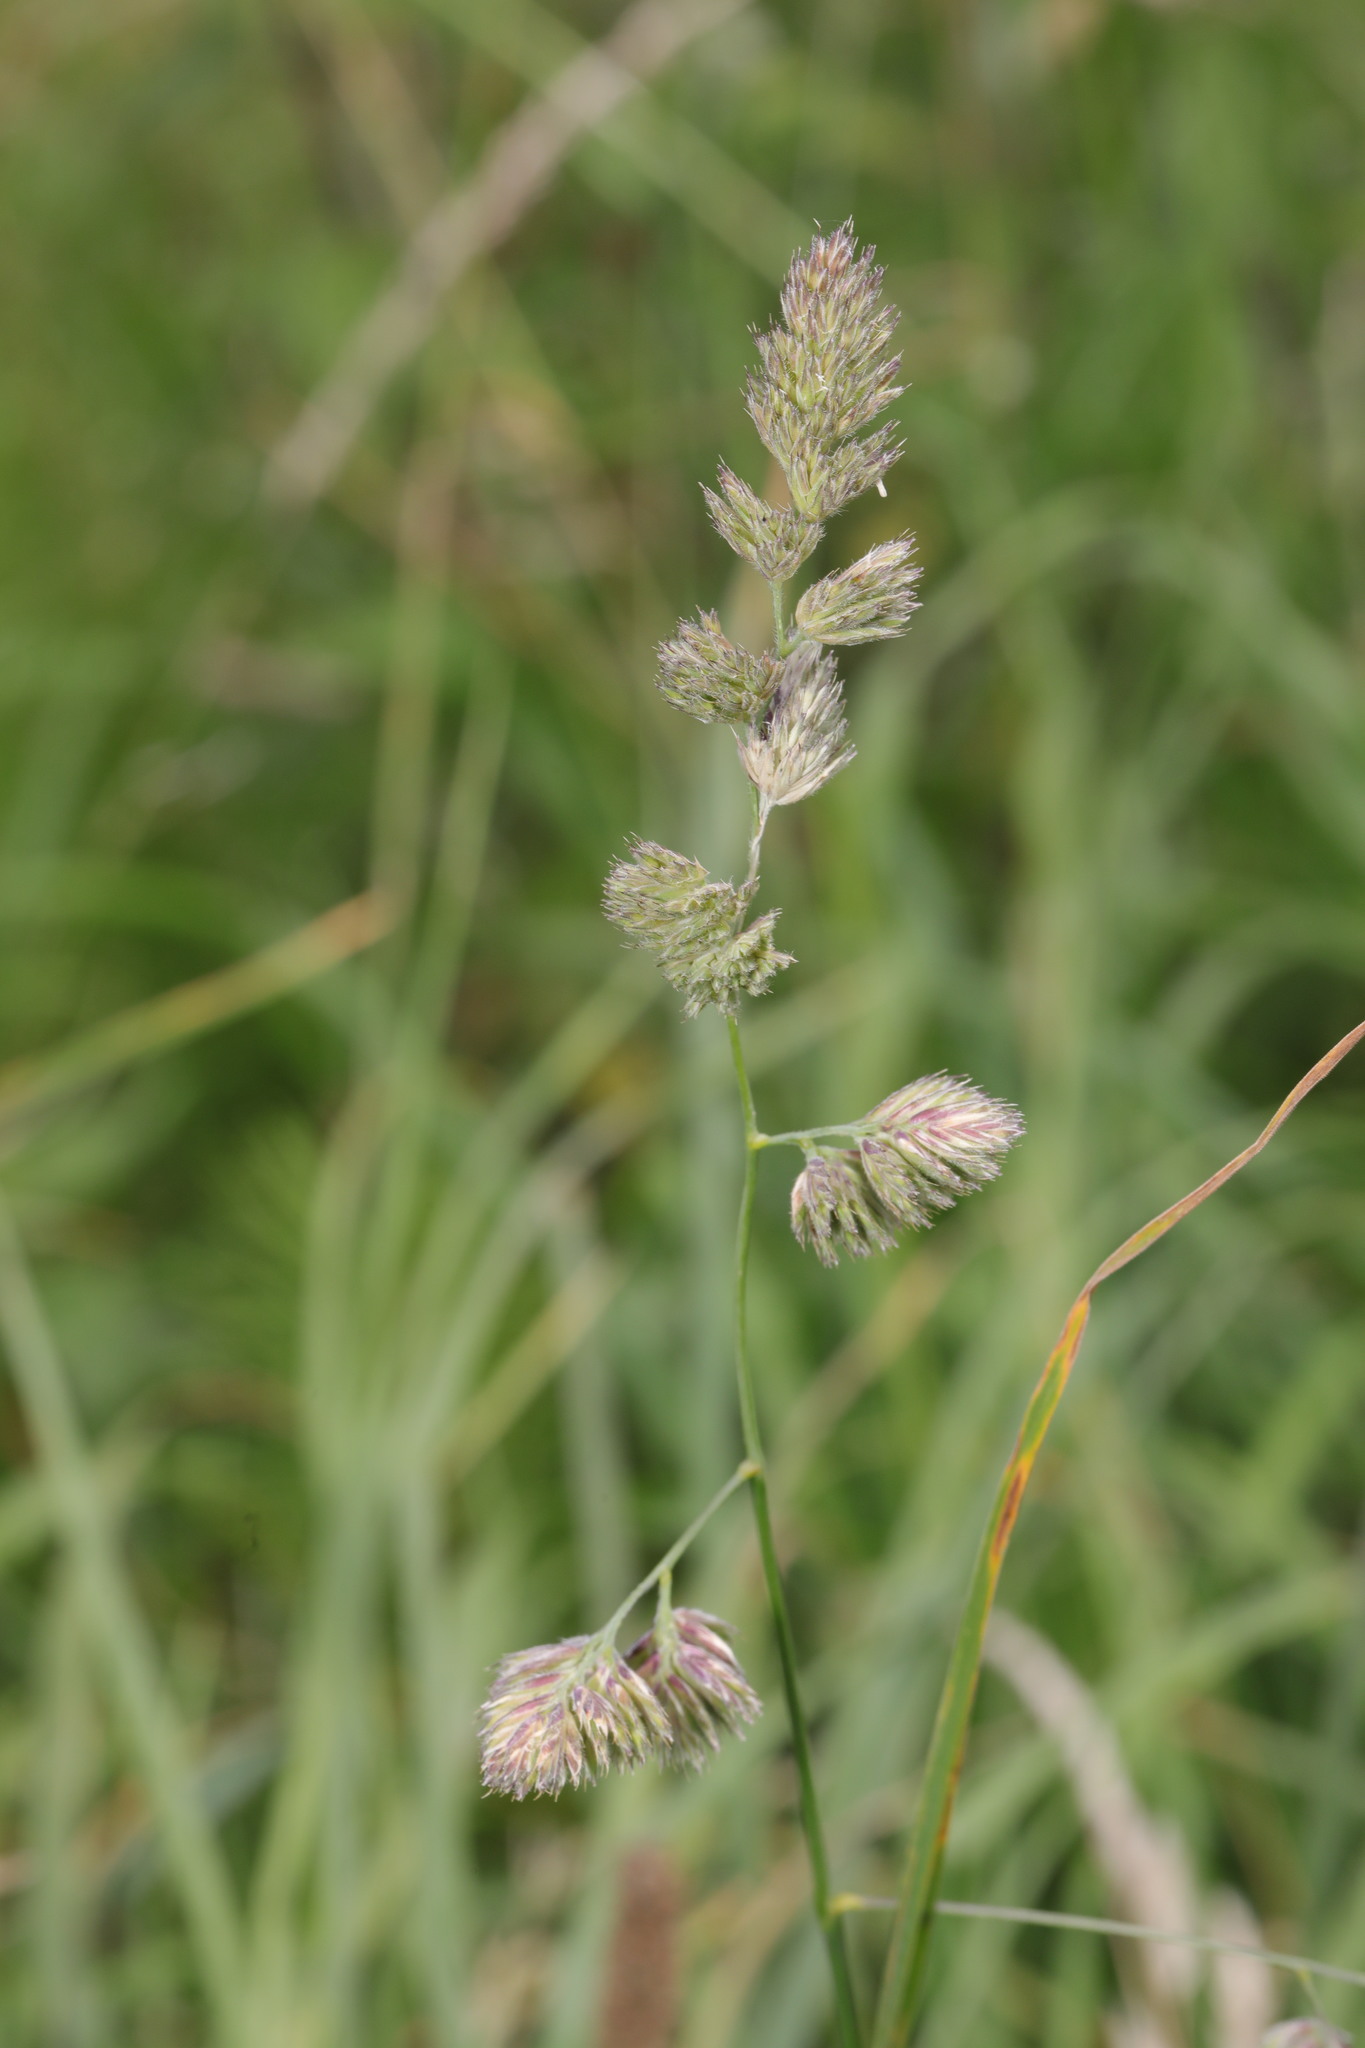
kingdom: Plantae
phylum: Tracheophyta
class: Liliopsida
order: Poales
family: Poaceae
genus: Dactylis
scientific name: Dactylis glomerata
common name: Orchardgrass
